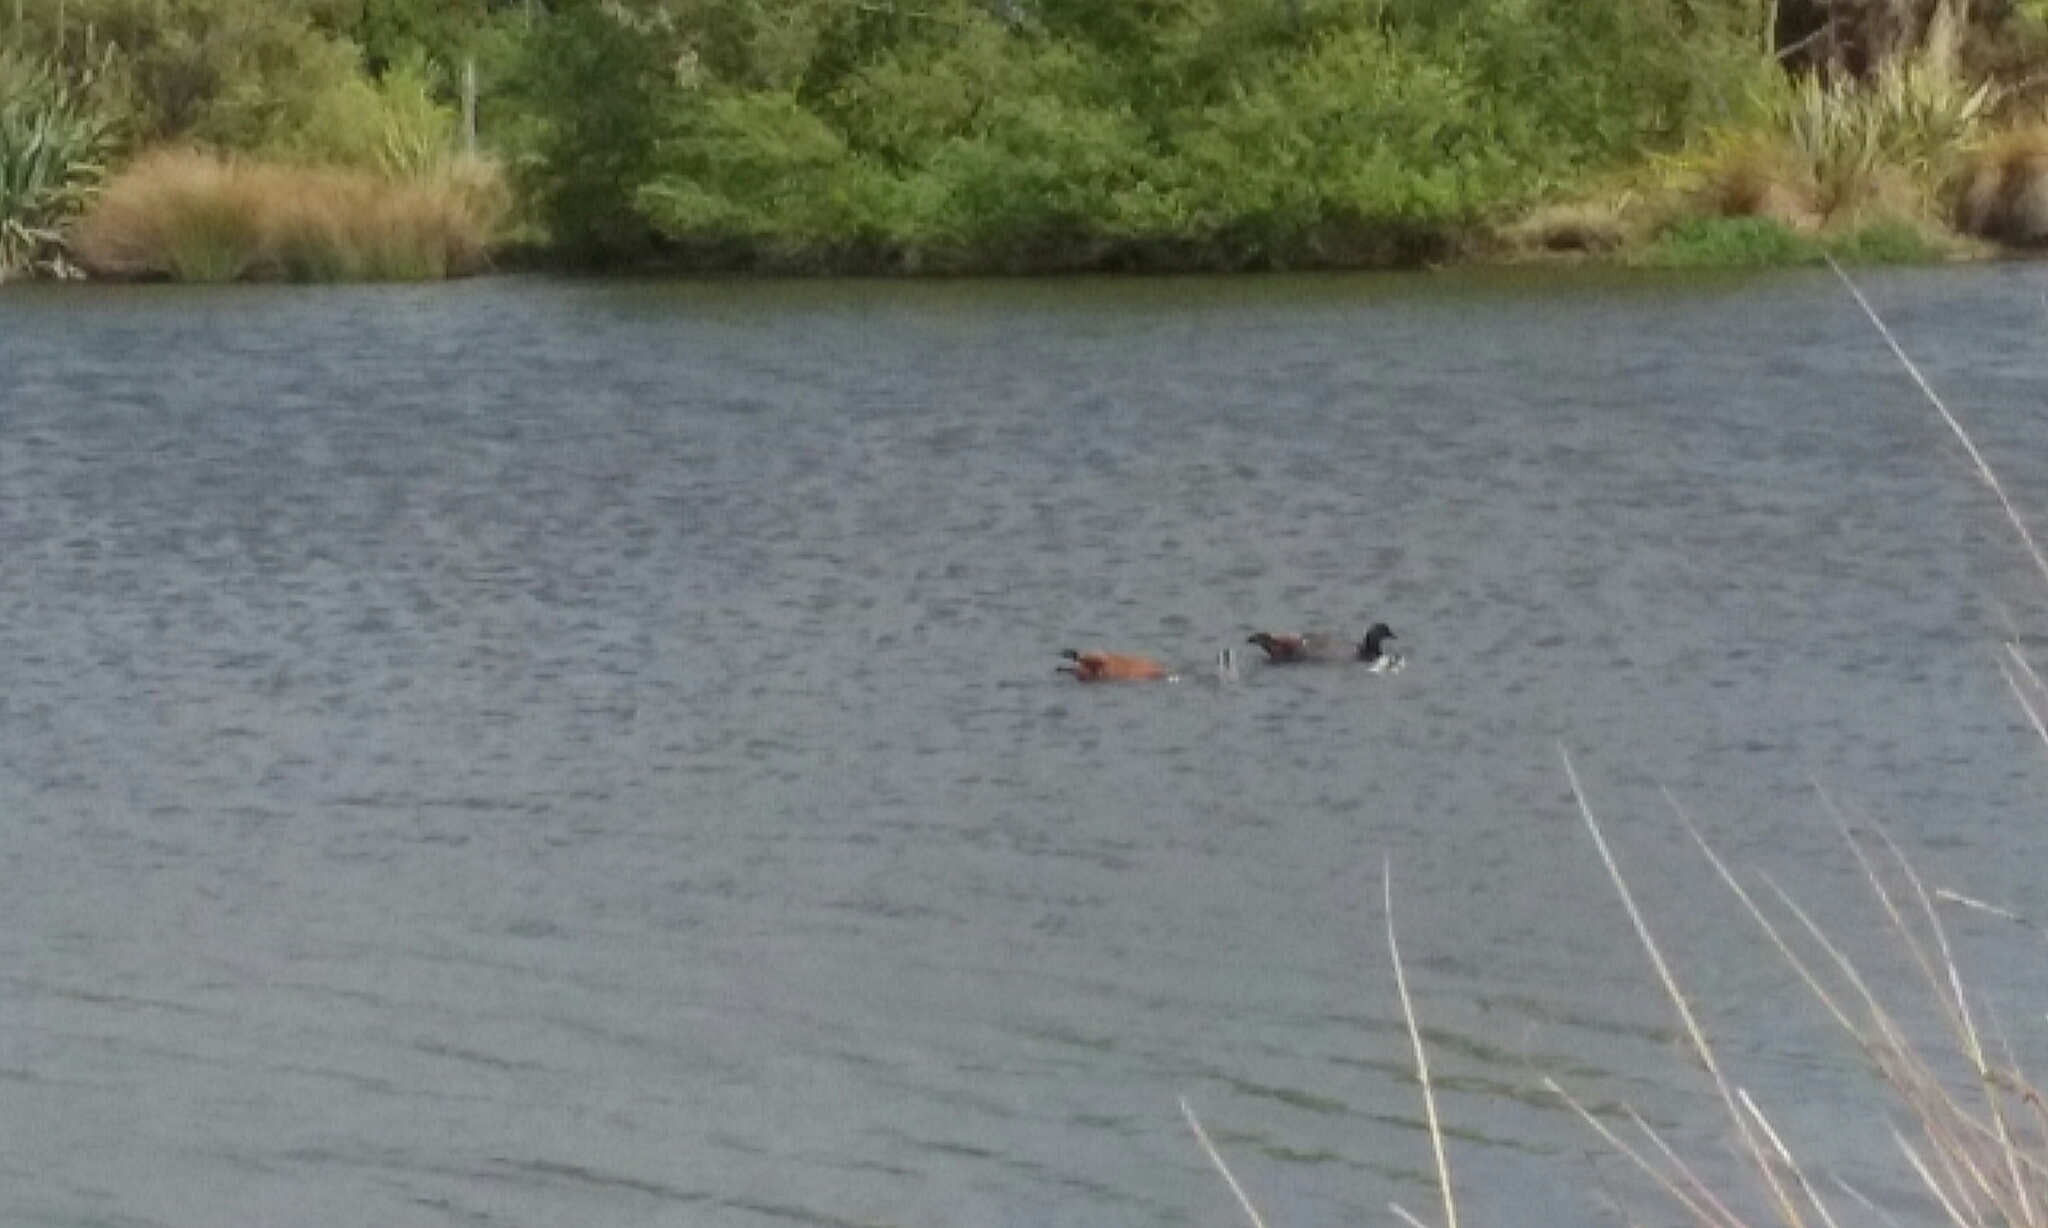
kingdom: Animalia
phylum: Chordata
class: Aves
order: Anseriformes
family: Anatidae
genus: Tadorna
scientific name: Tadorna variegata
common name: Paradise shelduck
